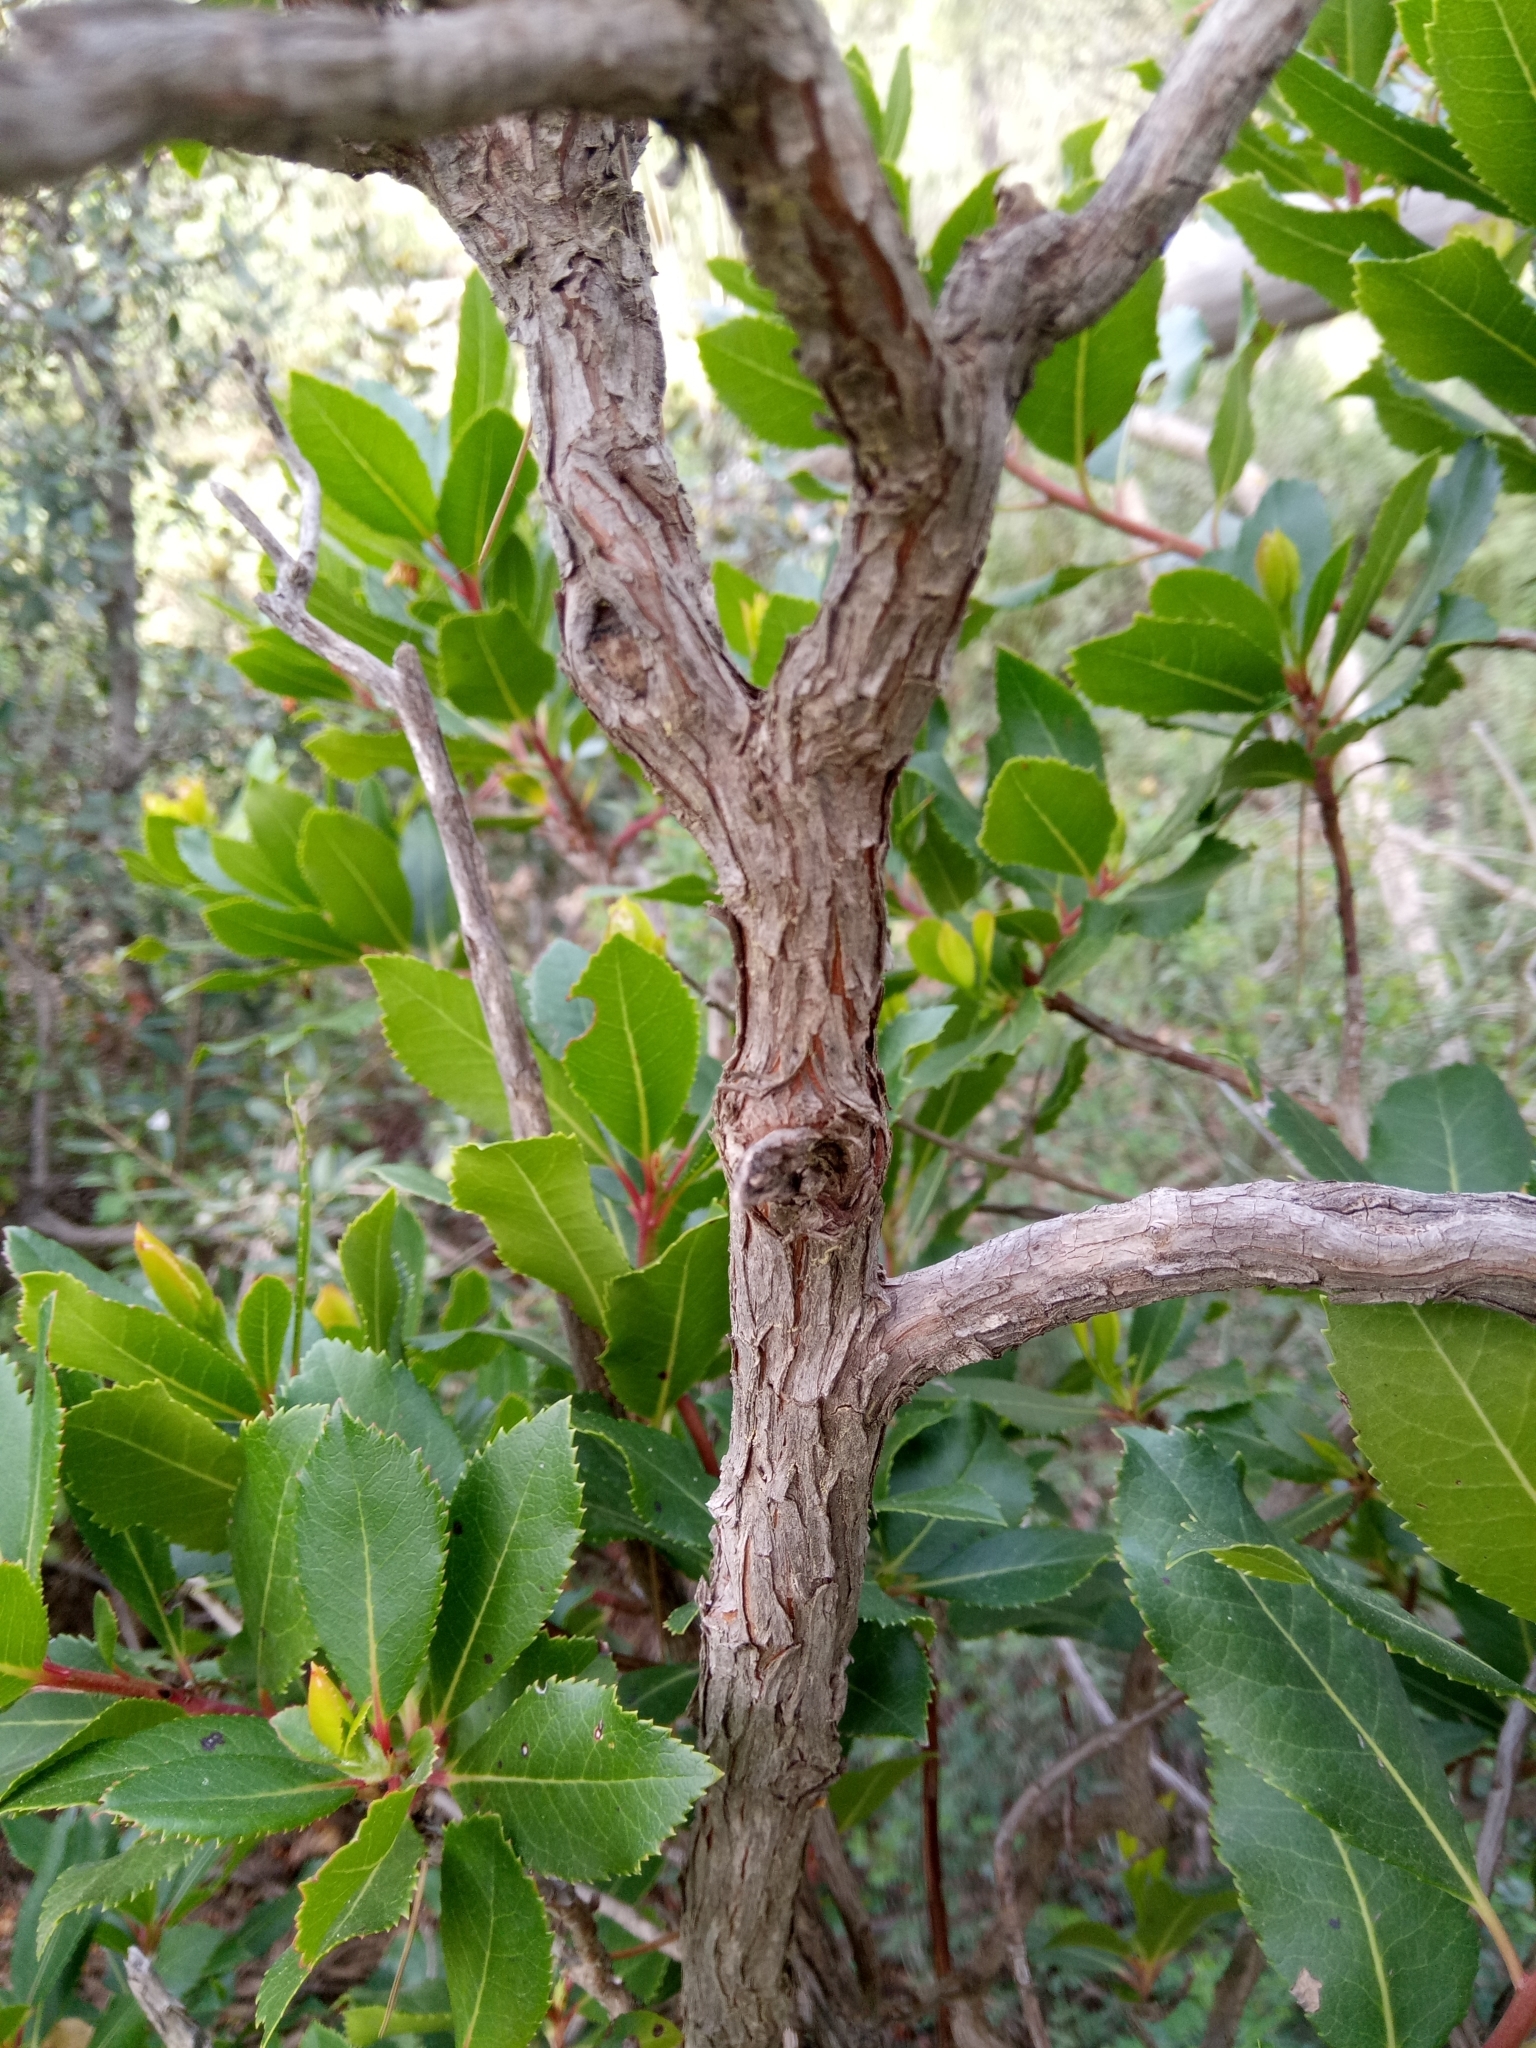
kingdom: Plantae
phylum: Tracheophyta
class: Magnoliopsida
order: Ericales
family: Ericaceae
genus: Arbutus
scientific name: Arbutus unedo
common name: Strawberry-tree
